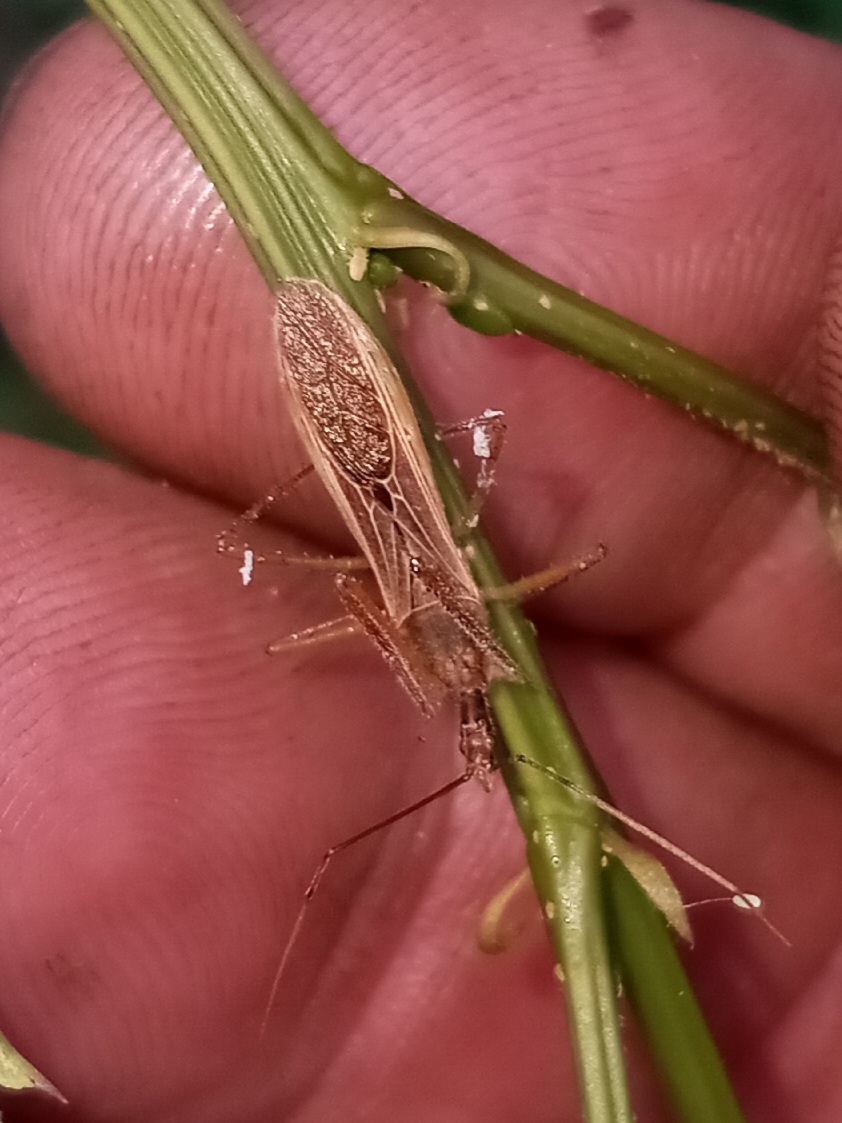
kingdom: Animalia
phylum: Arthropoda
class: Insecta
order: Hemiptera
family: Reduviidae
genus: Zelus
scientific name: Zelus cervicalis
